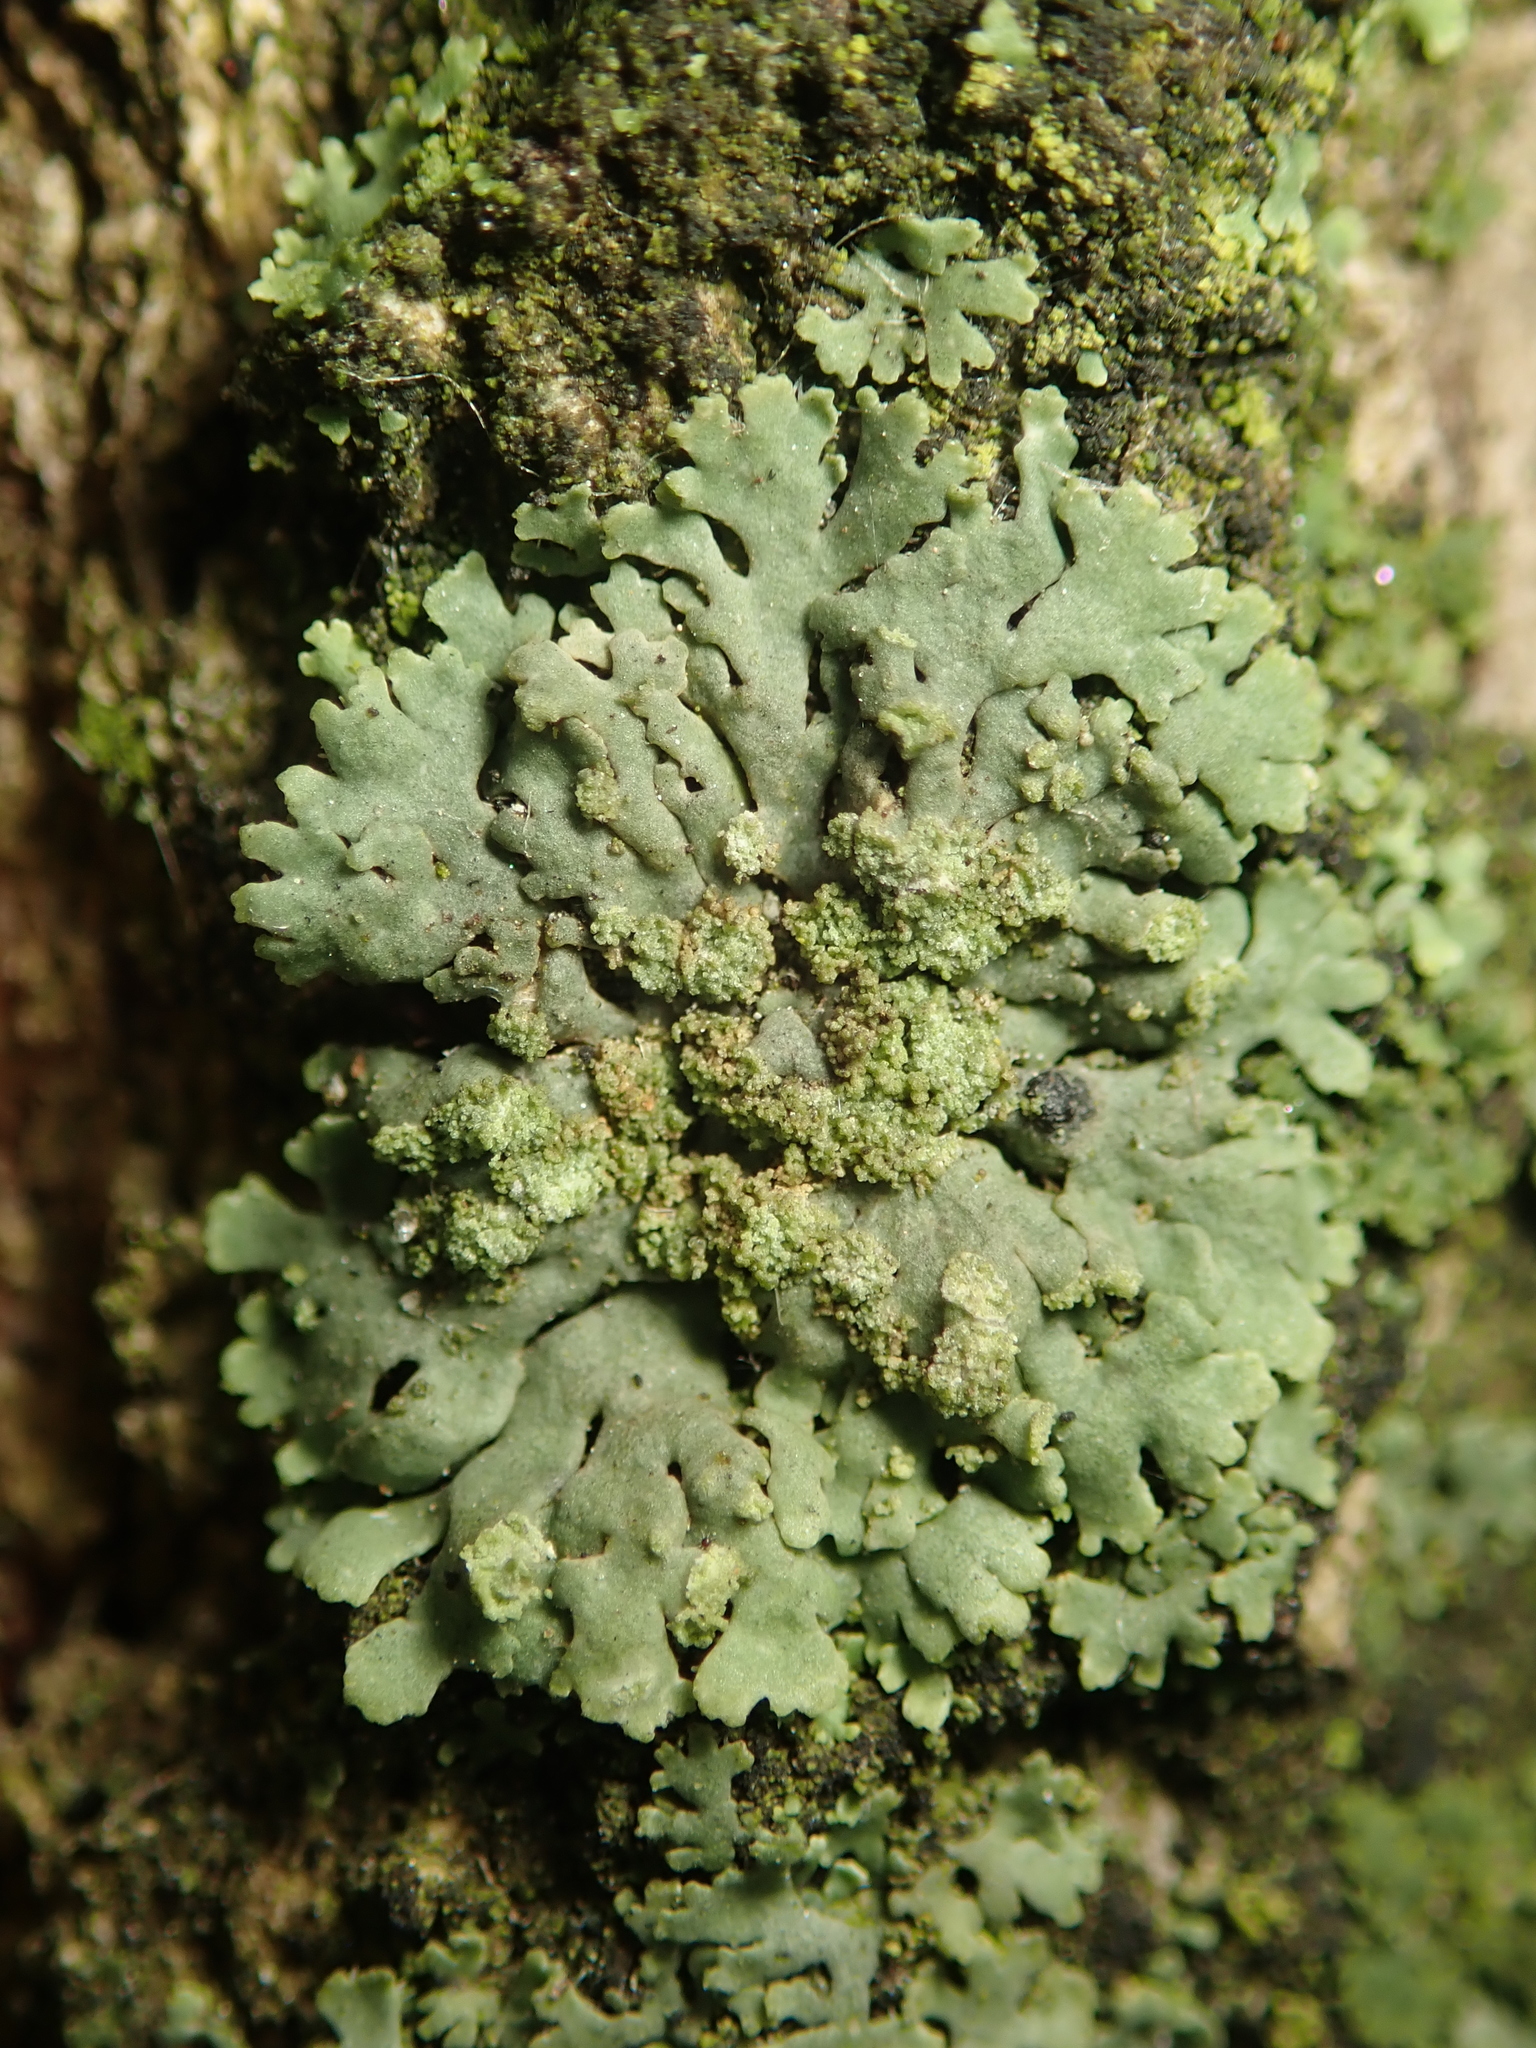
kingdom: Fungi
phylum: Ascomycota
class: Lecanoromycetes
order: Caliciales
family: Physciaceae
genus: Phaeophyscia
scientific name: Phaeophyscia orbicularis
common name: Mealy shadow lichen
